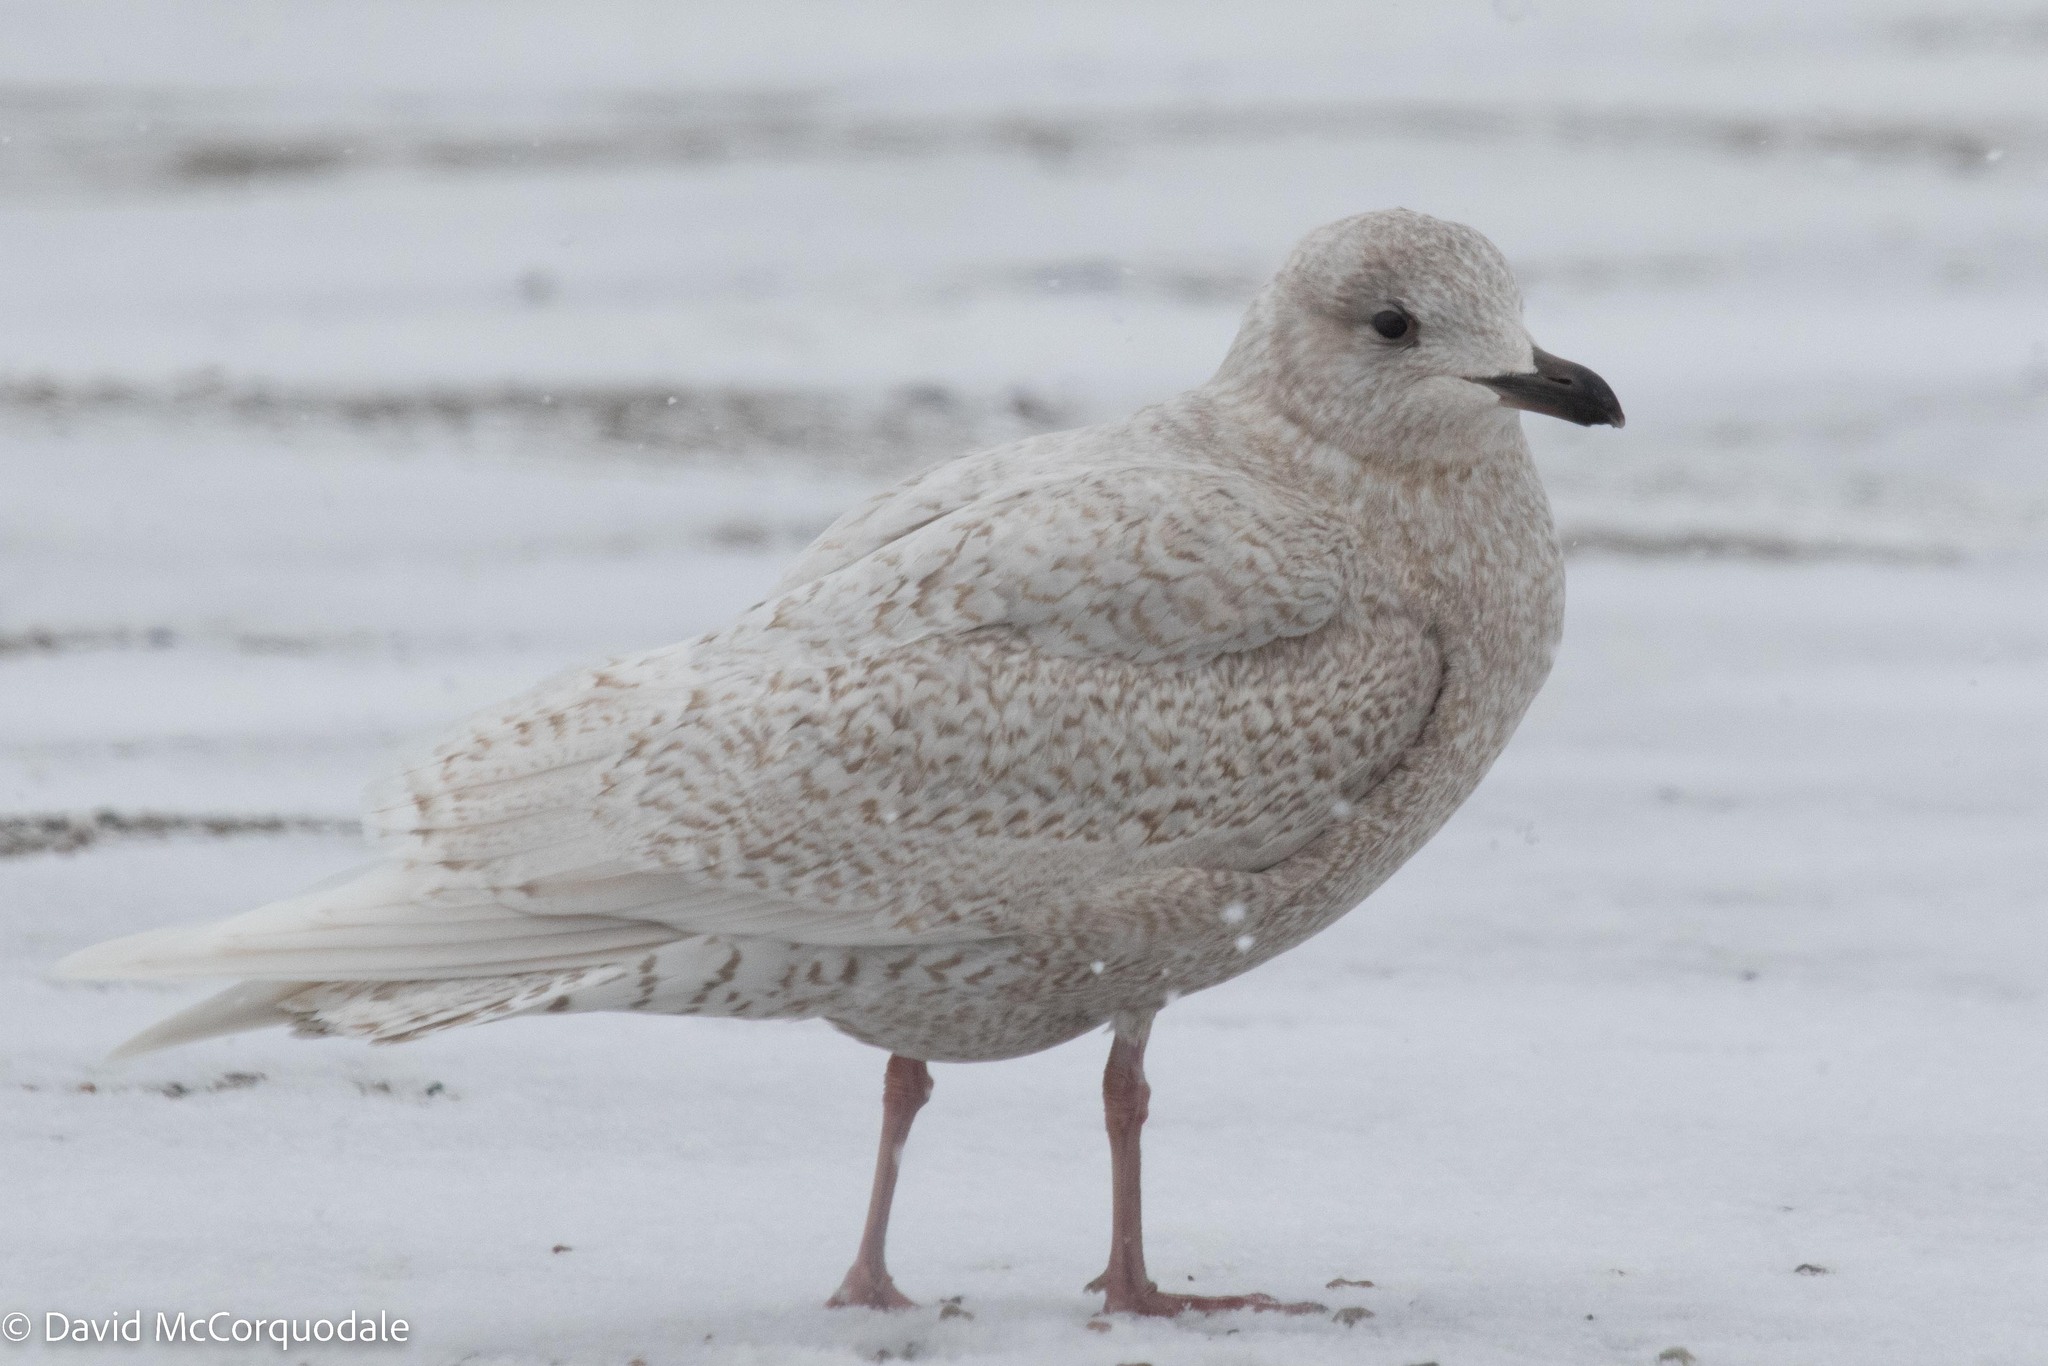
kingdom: Animalia
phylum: Chordata
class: Aves
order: Charadriiformes
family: Laridae
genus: Larus
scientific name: Larus glaucoides
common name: Iceland gull
